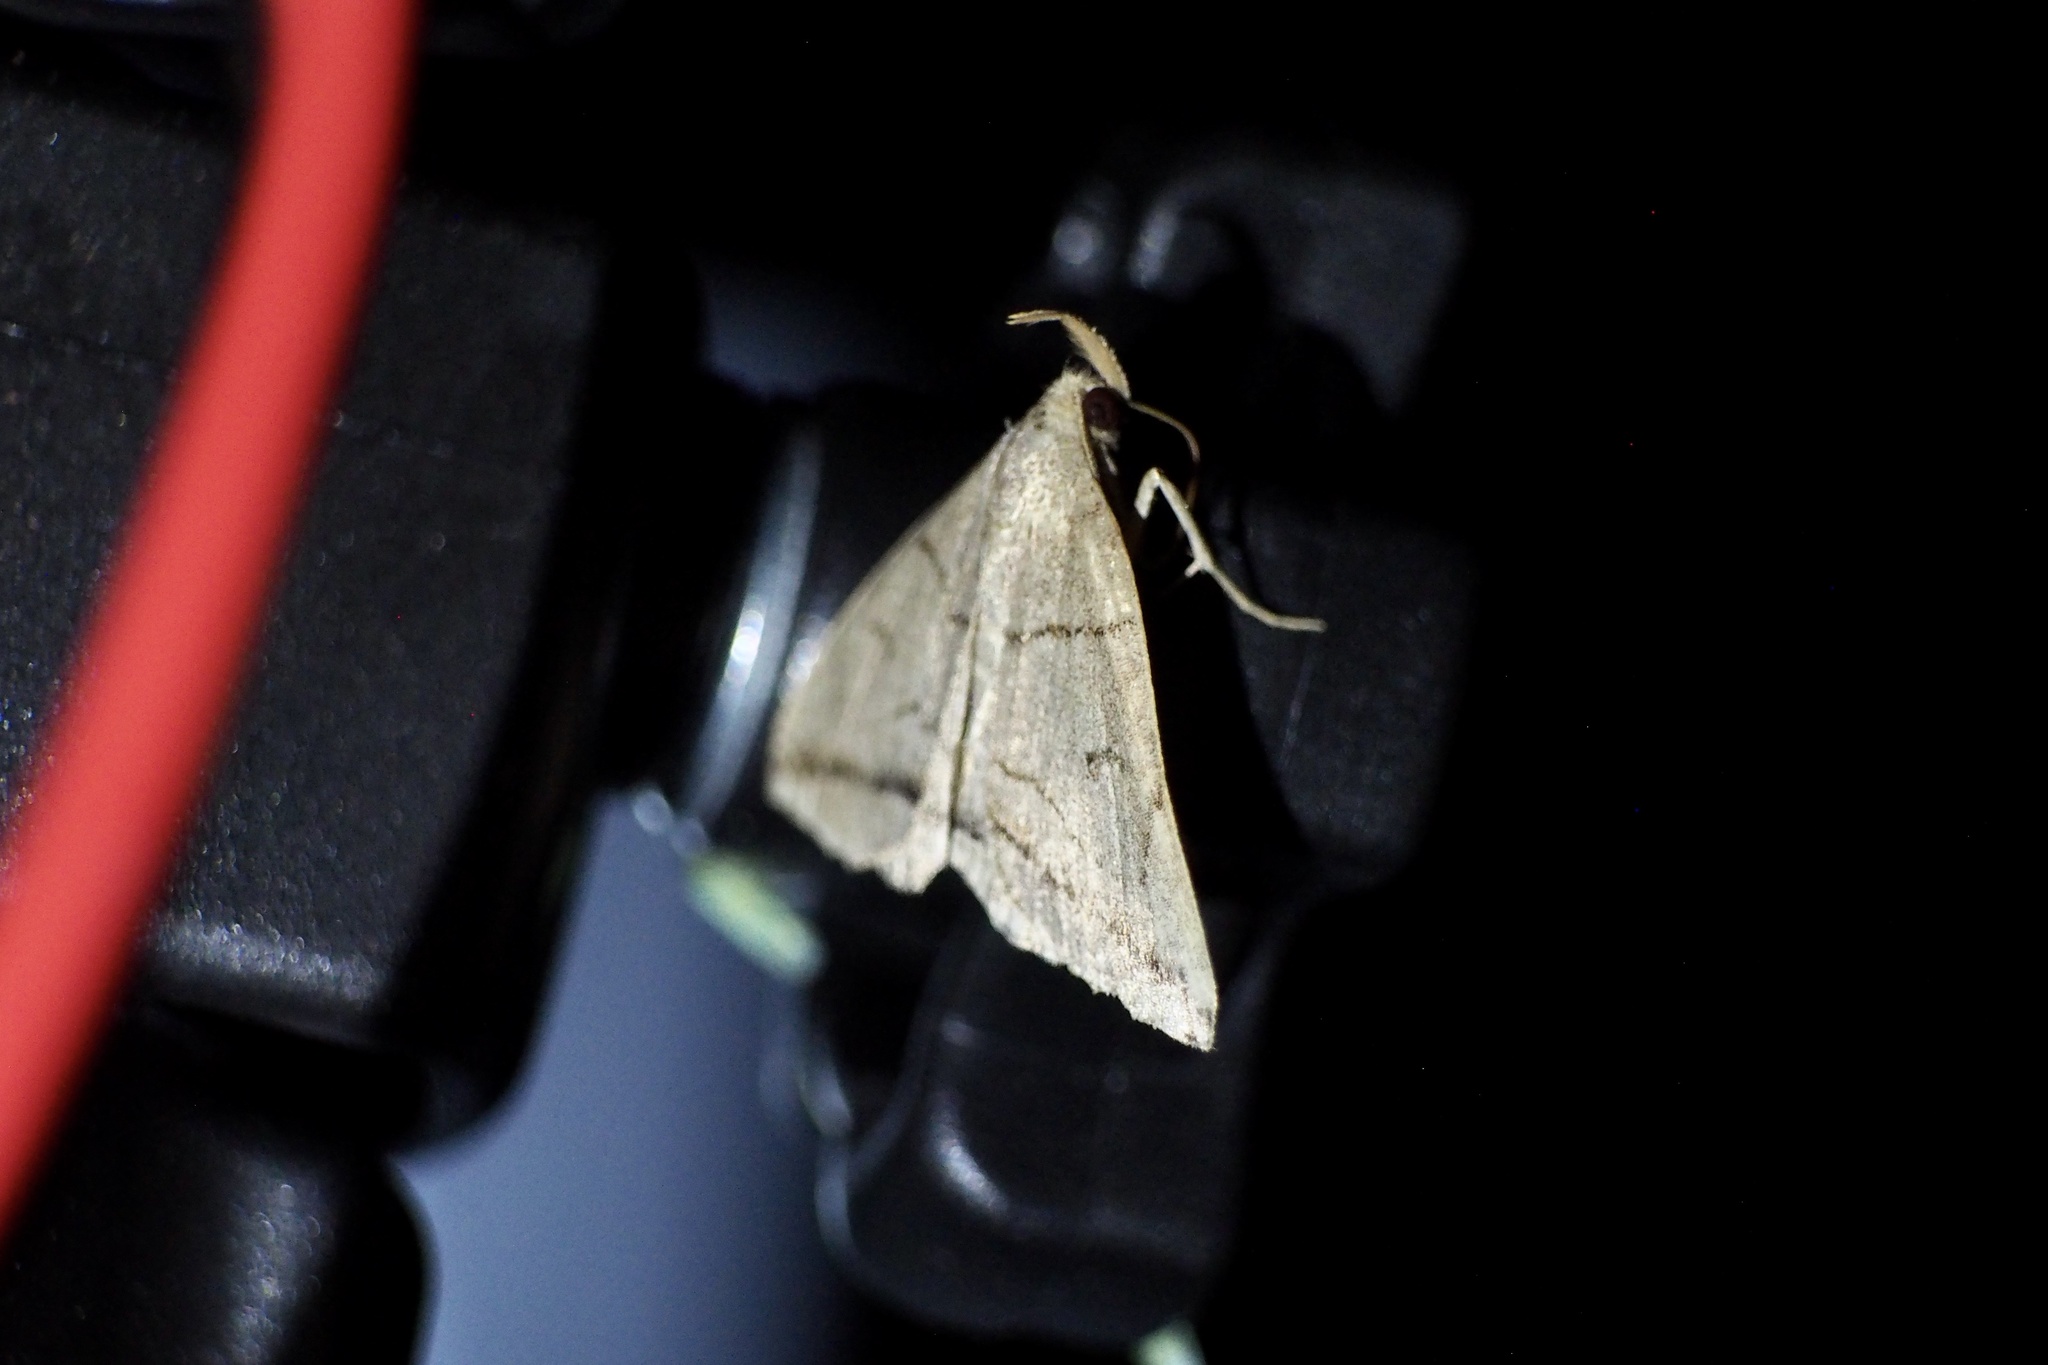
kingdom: Animalia
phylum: Arthropoda
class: Insecta
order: Lepidoptera
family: Erebidae
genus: Zanclognatha
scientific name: Zanclognatha griselda
